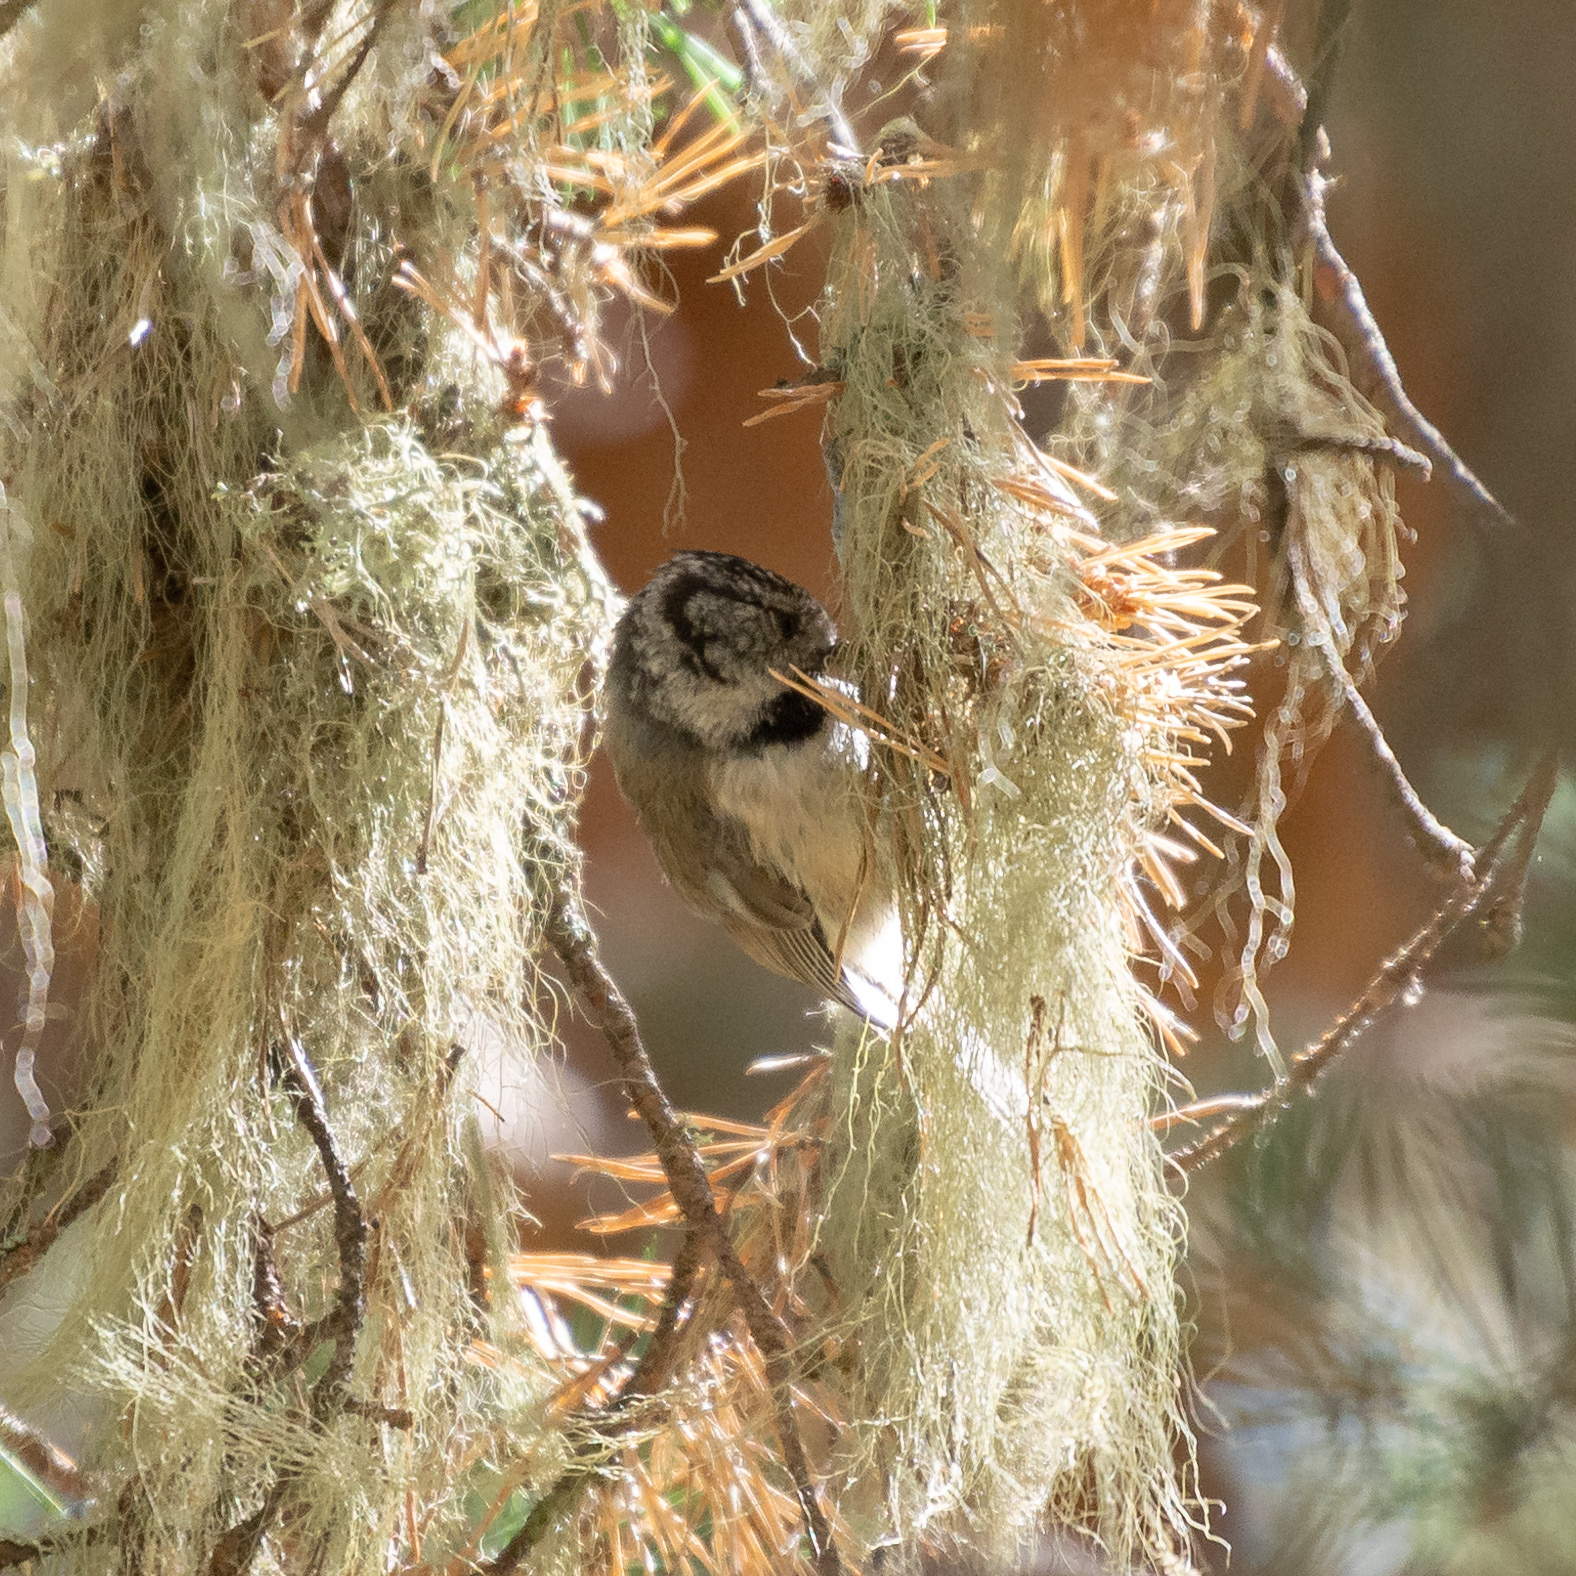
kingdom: Animalia
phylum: Chordata
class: Aves
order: Passeriformes
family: Paridae
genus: Lophophanes
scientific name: Lophophanes cristatus
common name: European crested tit
